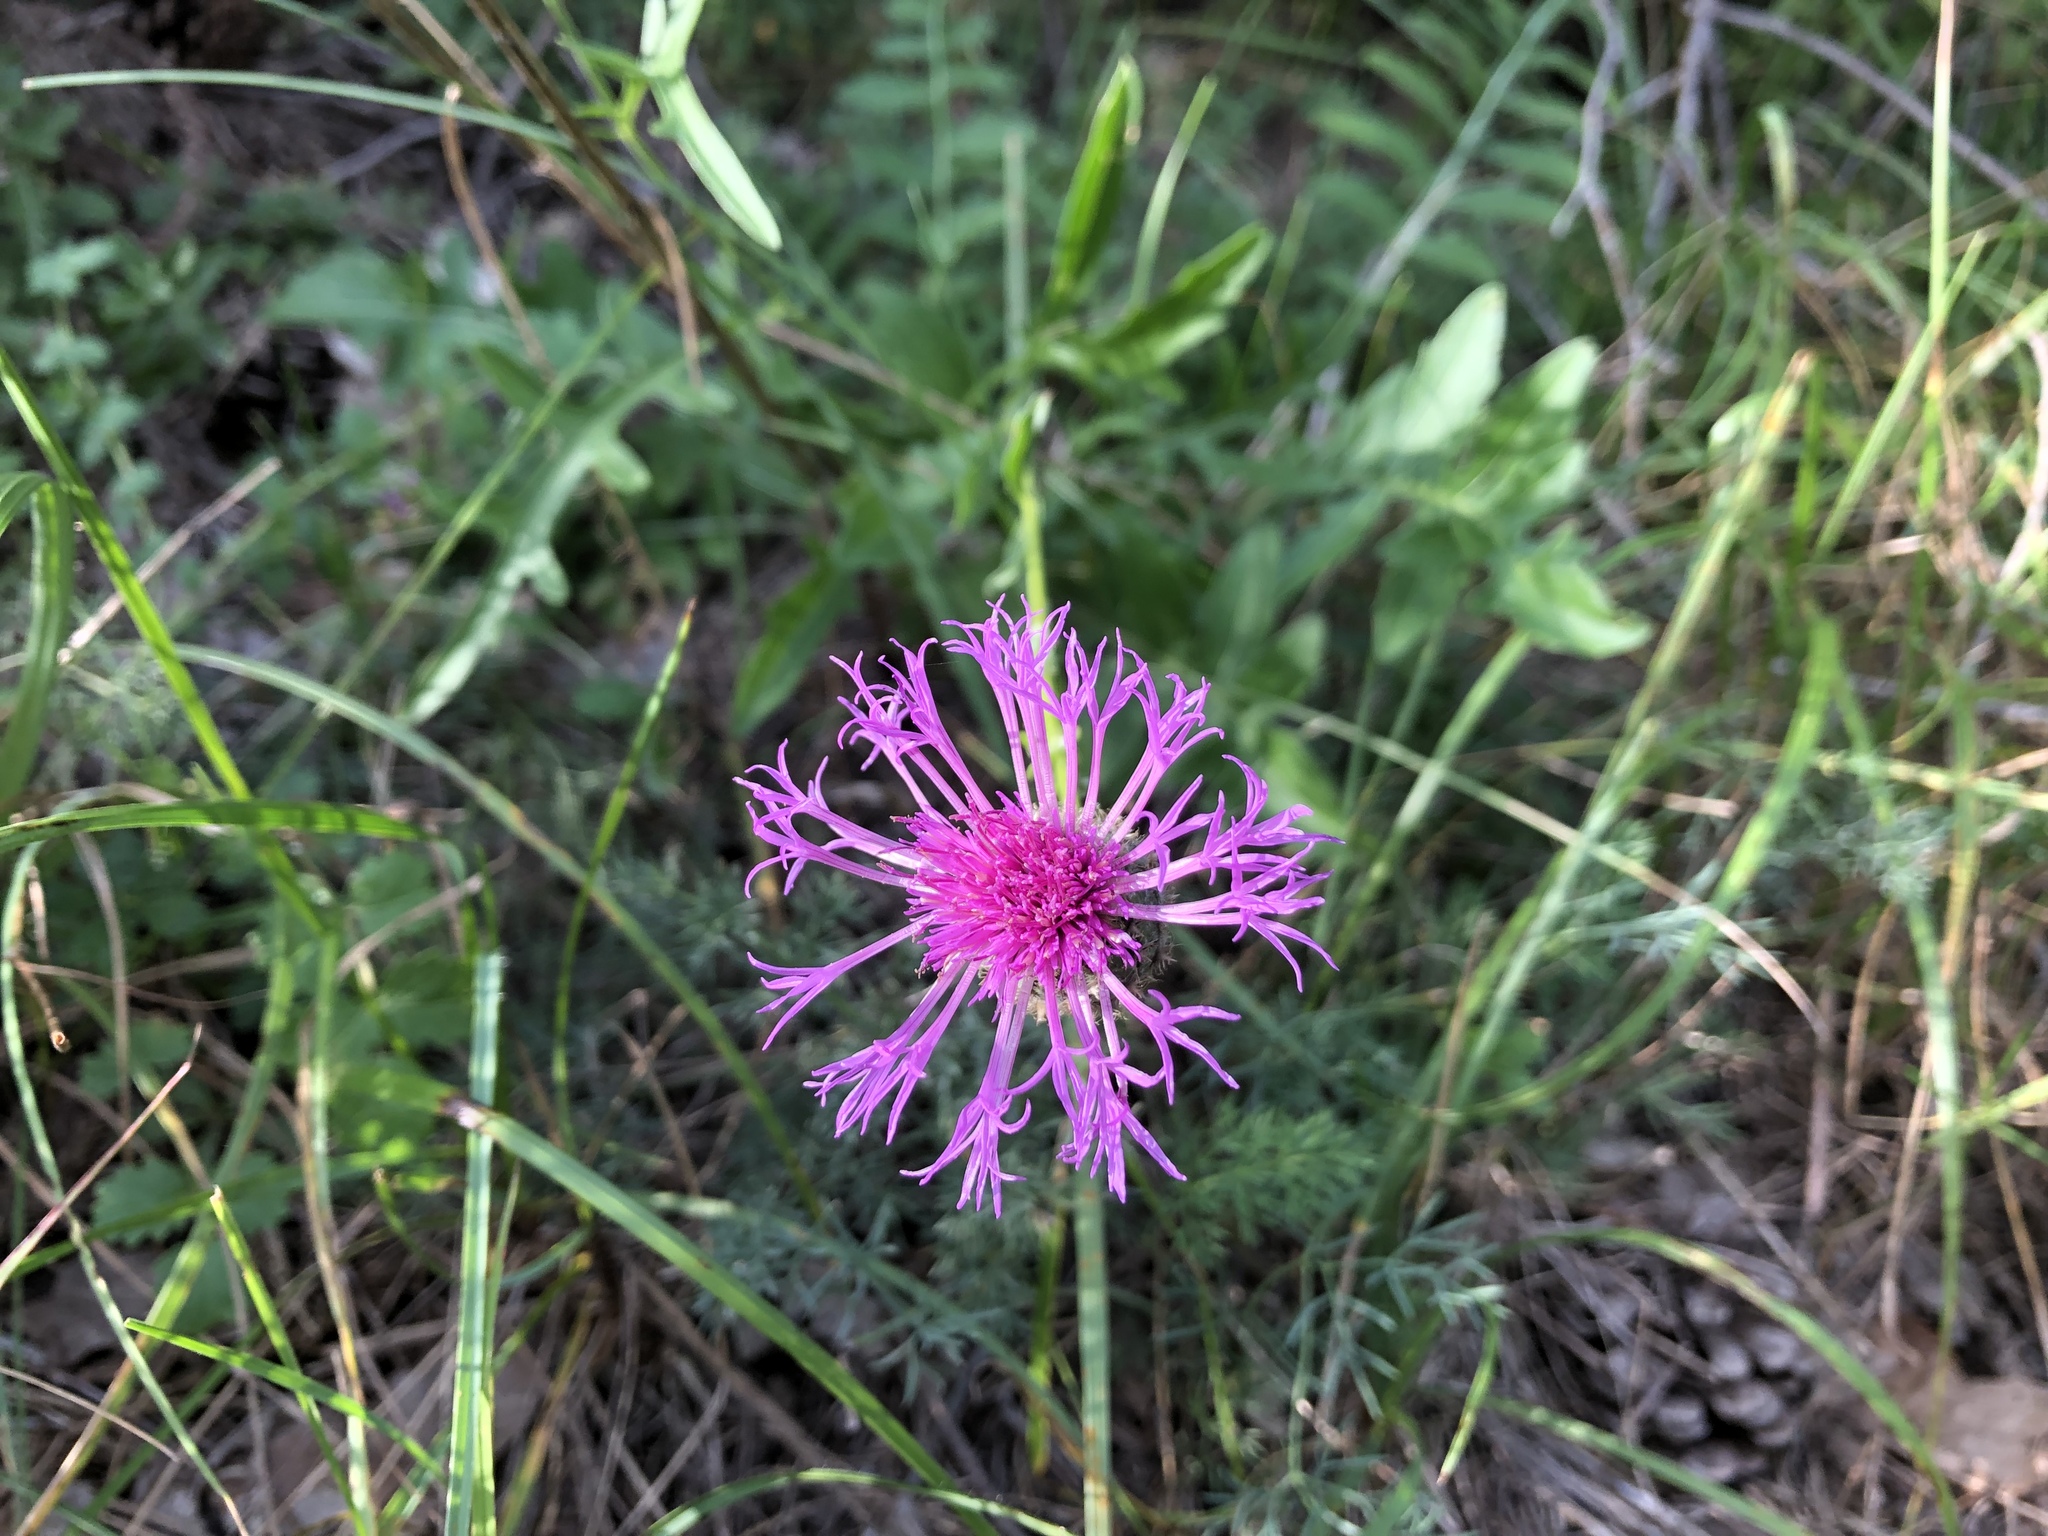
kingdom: Plantae
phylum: Tracheophyta
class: Magnoliopsida
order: Asterales
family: Asteraceae
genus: Centaurea
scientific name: Centaurea scabiosa
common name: Greater knapweed
